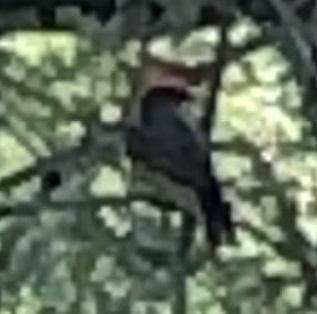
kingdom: Animalia
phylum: Chordata
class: Aves
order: Passeriformes
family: Tyrannidae
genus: Pyrocephalus
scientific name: Pyrocephalus rubinus
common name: Vermilion flycatcher
